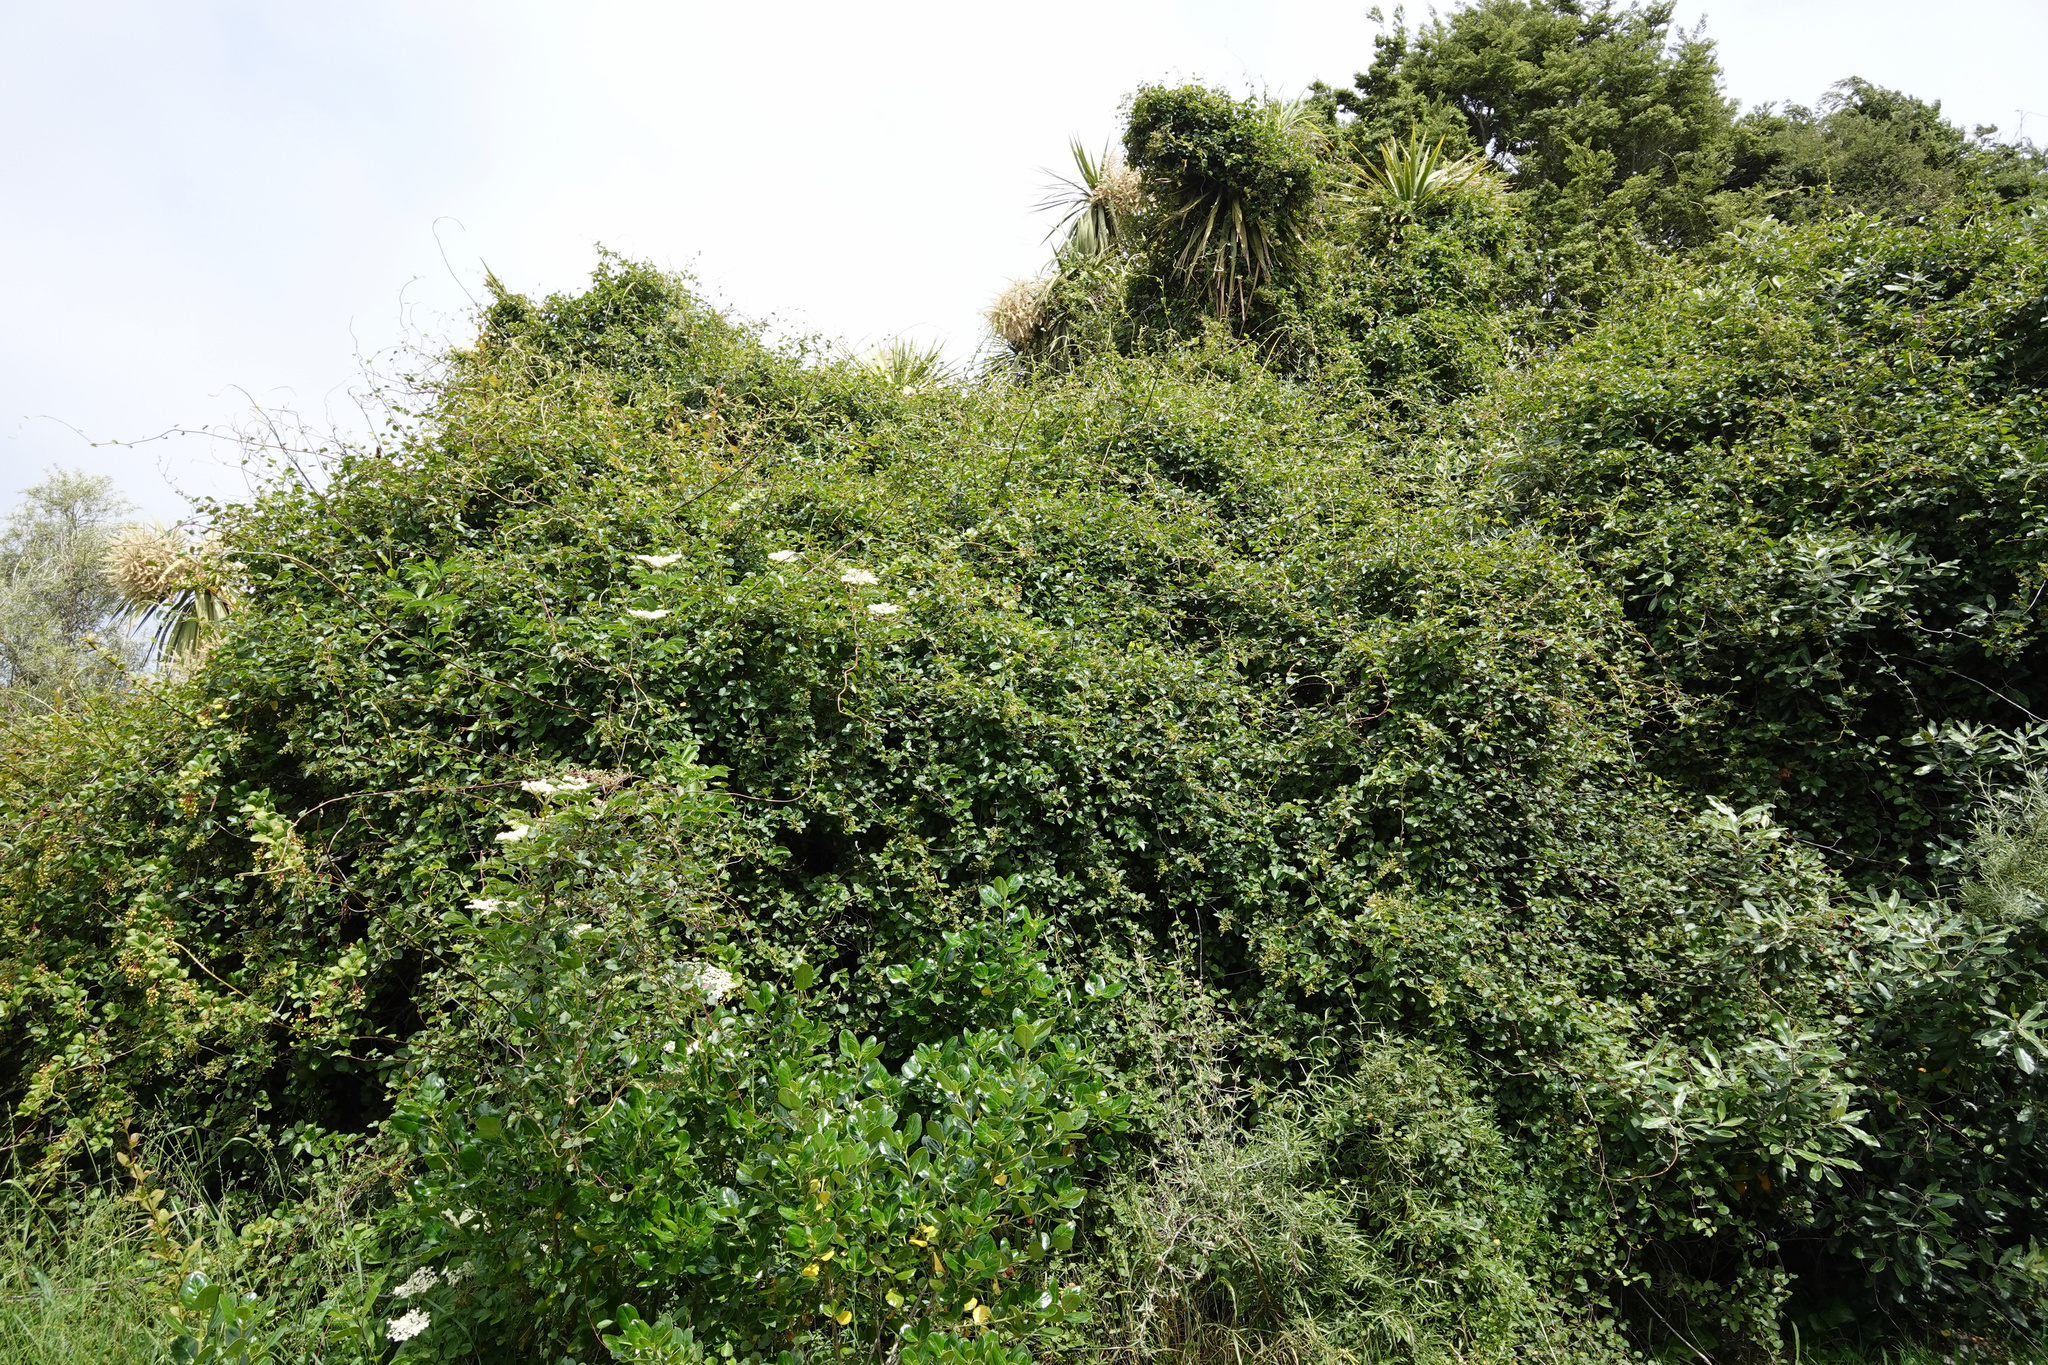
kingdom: Plantae
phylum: Tracheophyta
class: Magnoliopsida
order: Caryophyllales
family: Polygonaceae
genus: Muehlenbeckia
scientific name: Muehlenbeckia australis
